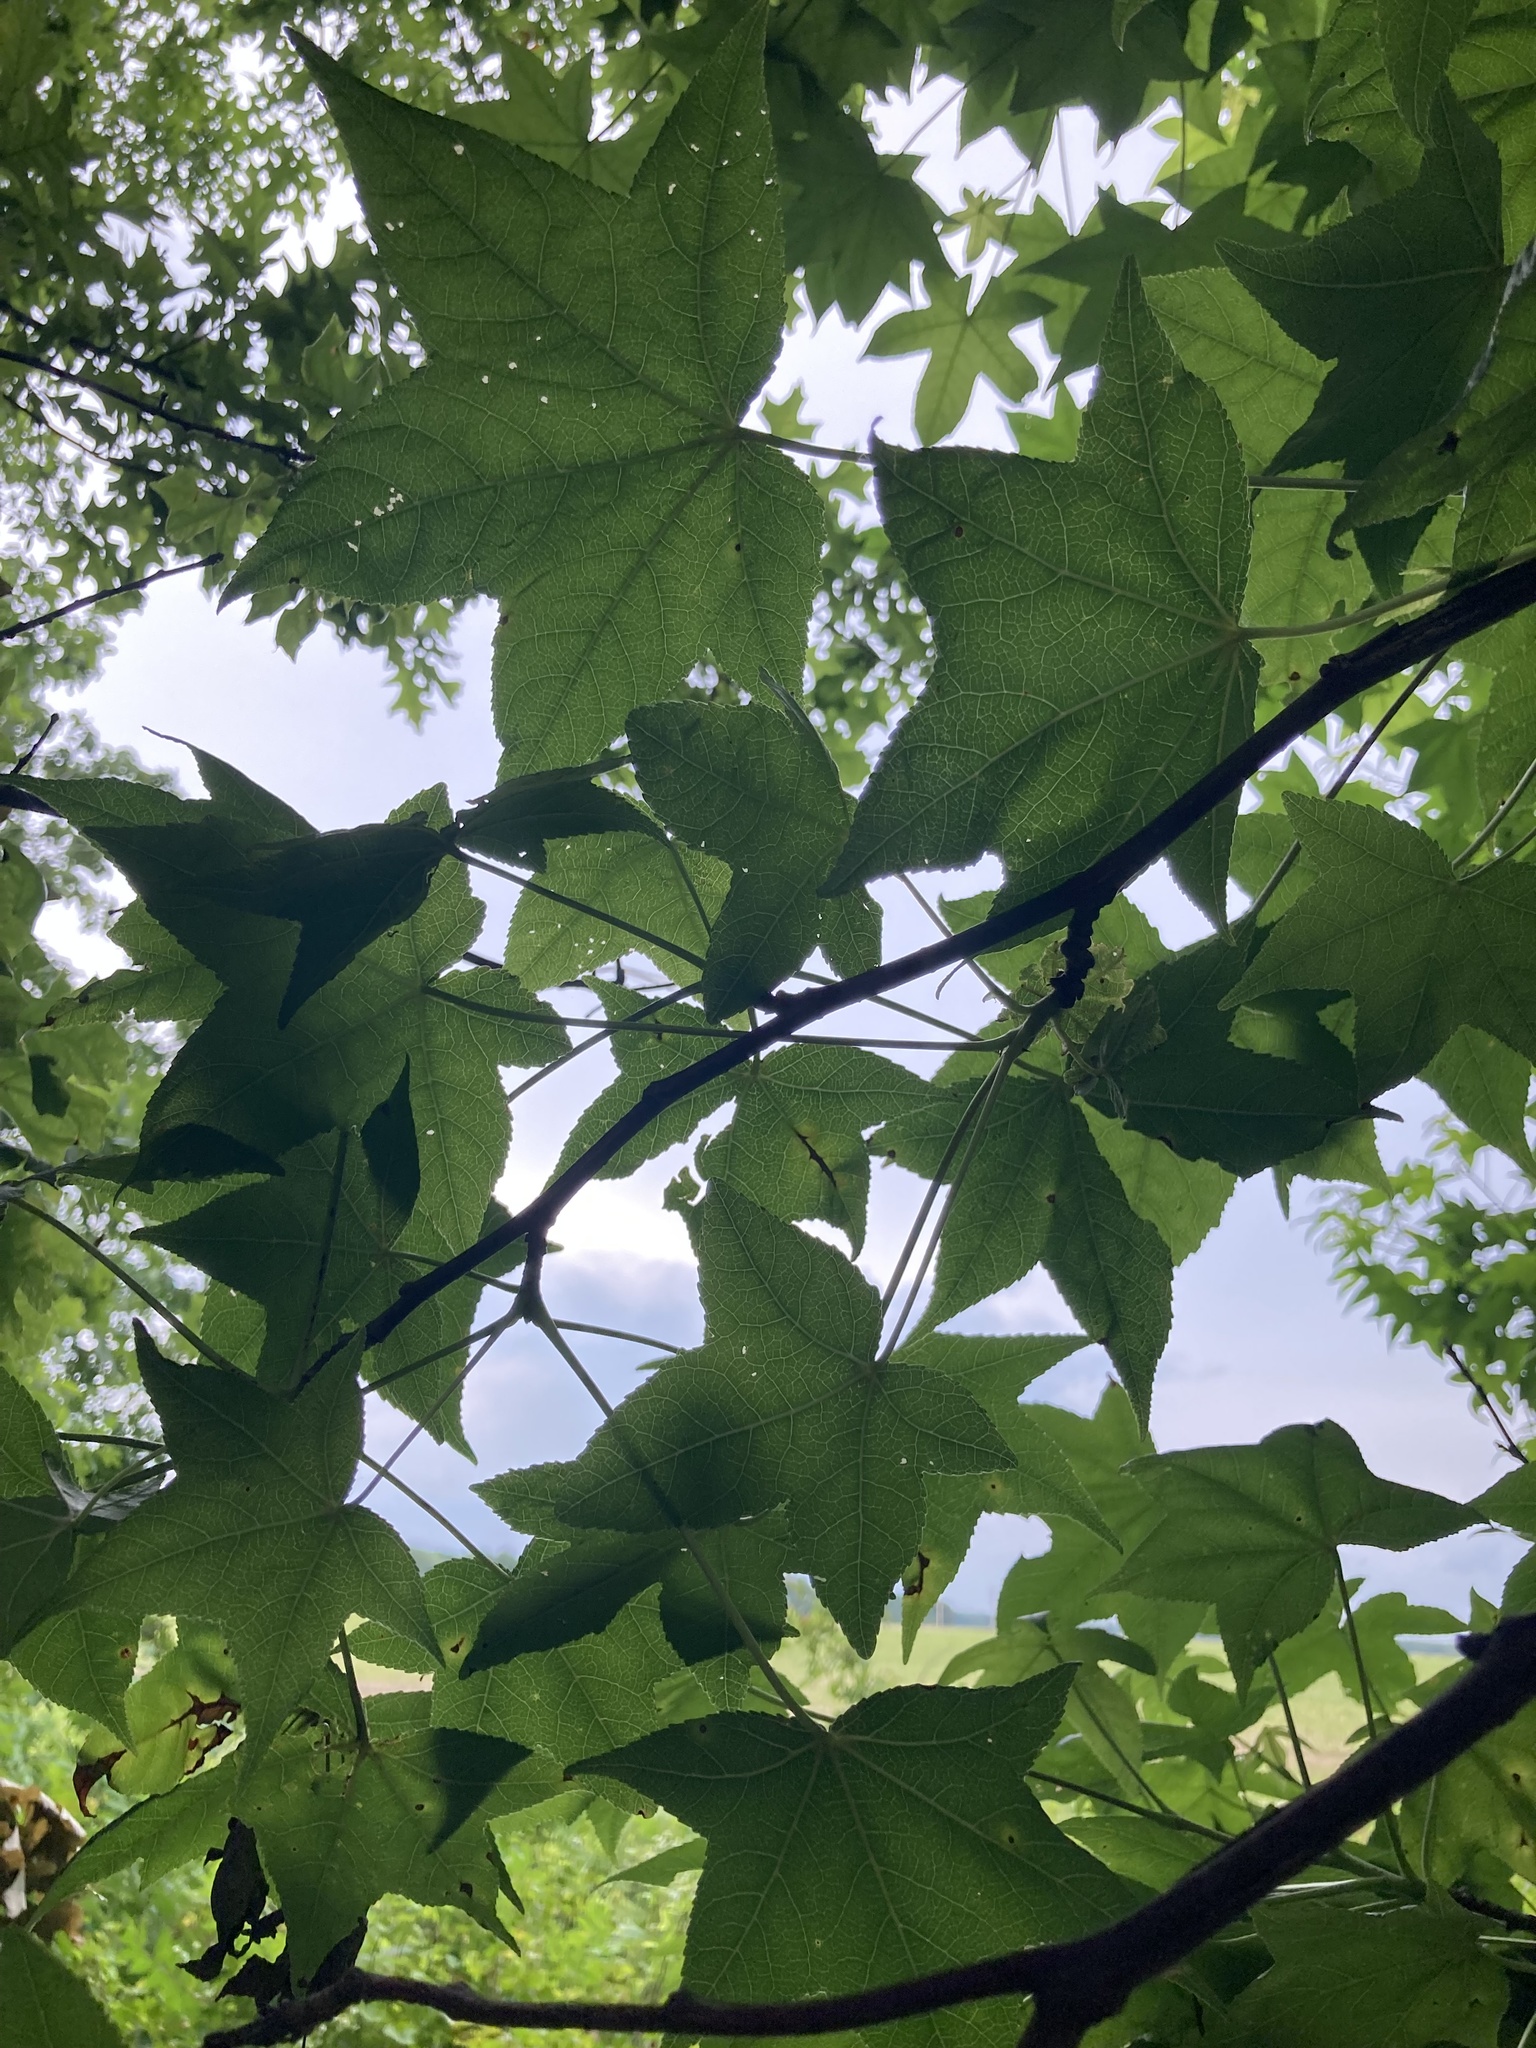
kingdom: Plantae
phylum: Tracheophyta
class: Magnoliopsida
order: Saxifragales
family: Altingiaceae
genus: Liquidambar
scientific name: Liquidambar styraciflua
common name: Sweet gum
